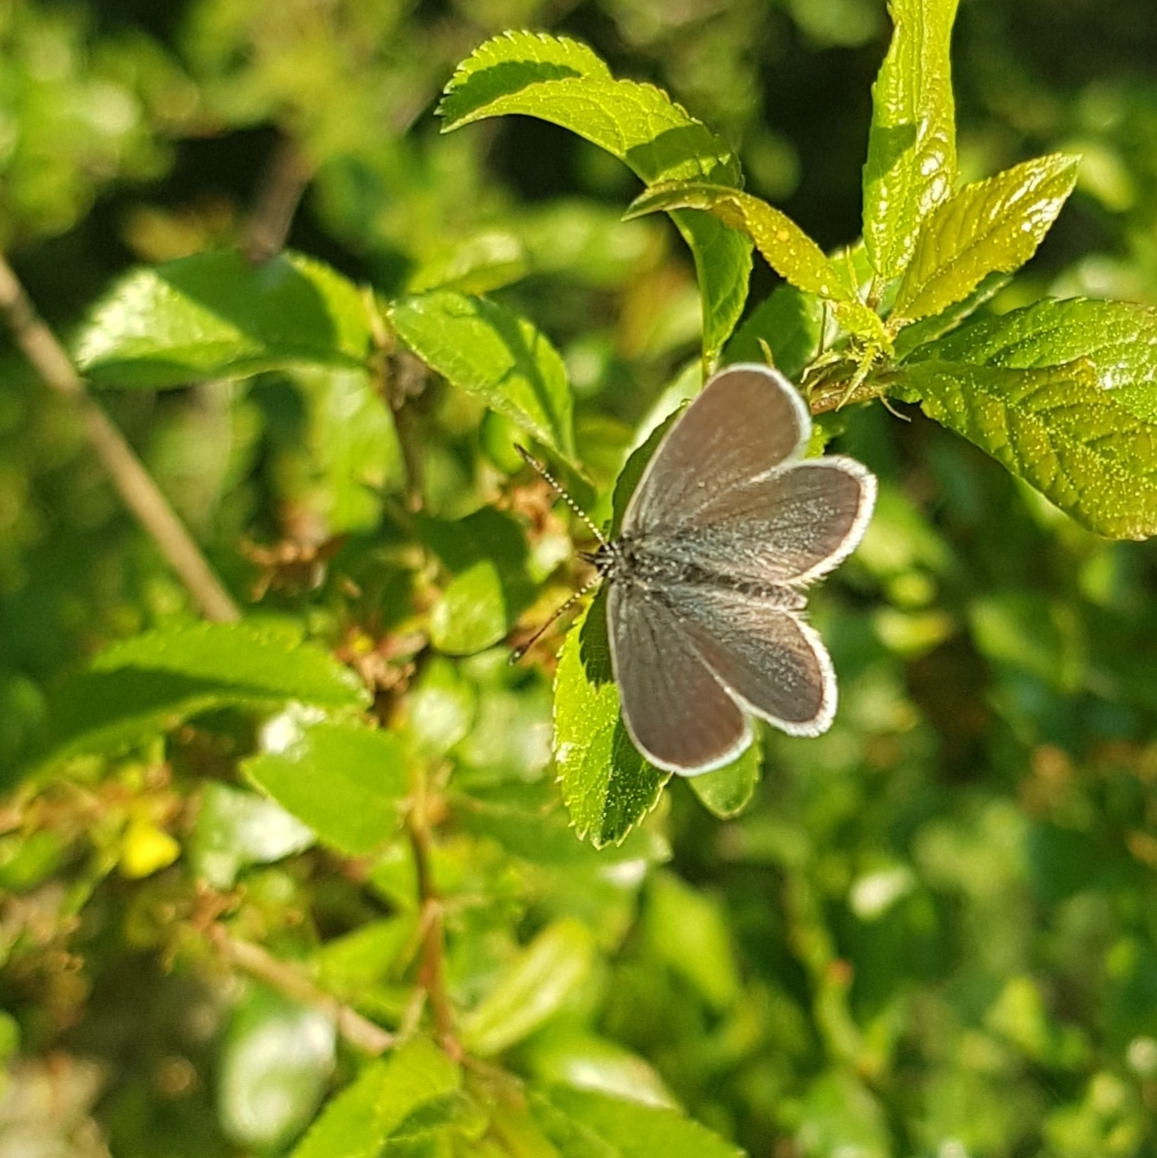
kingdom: Animalia
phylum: Arthropoda
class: Insecta
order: Lepidoptera
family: Lycaenidae
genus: Cupido
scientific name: Cupido minimus
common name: Small blue
